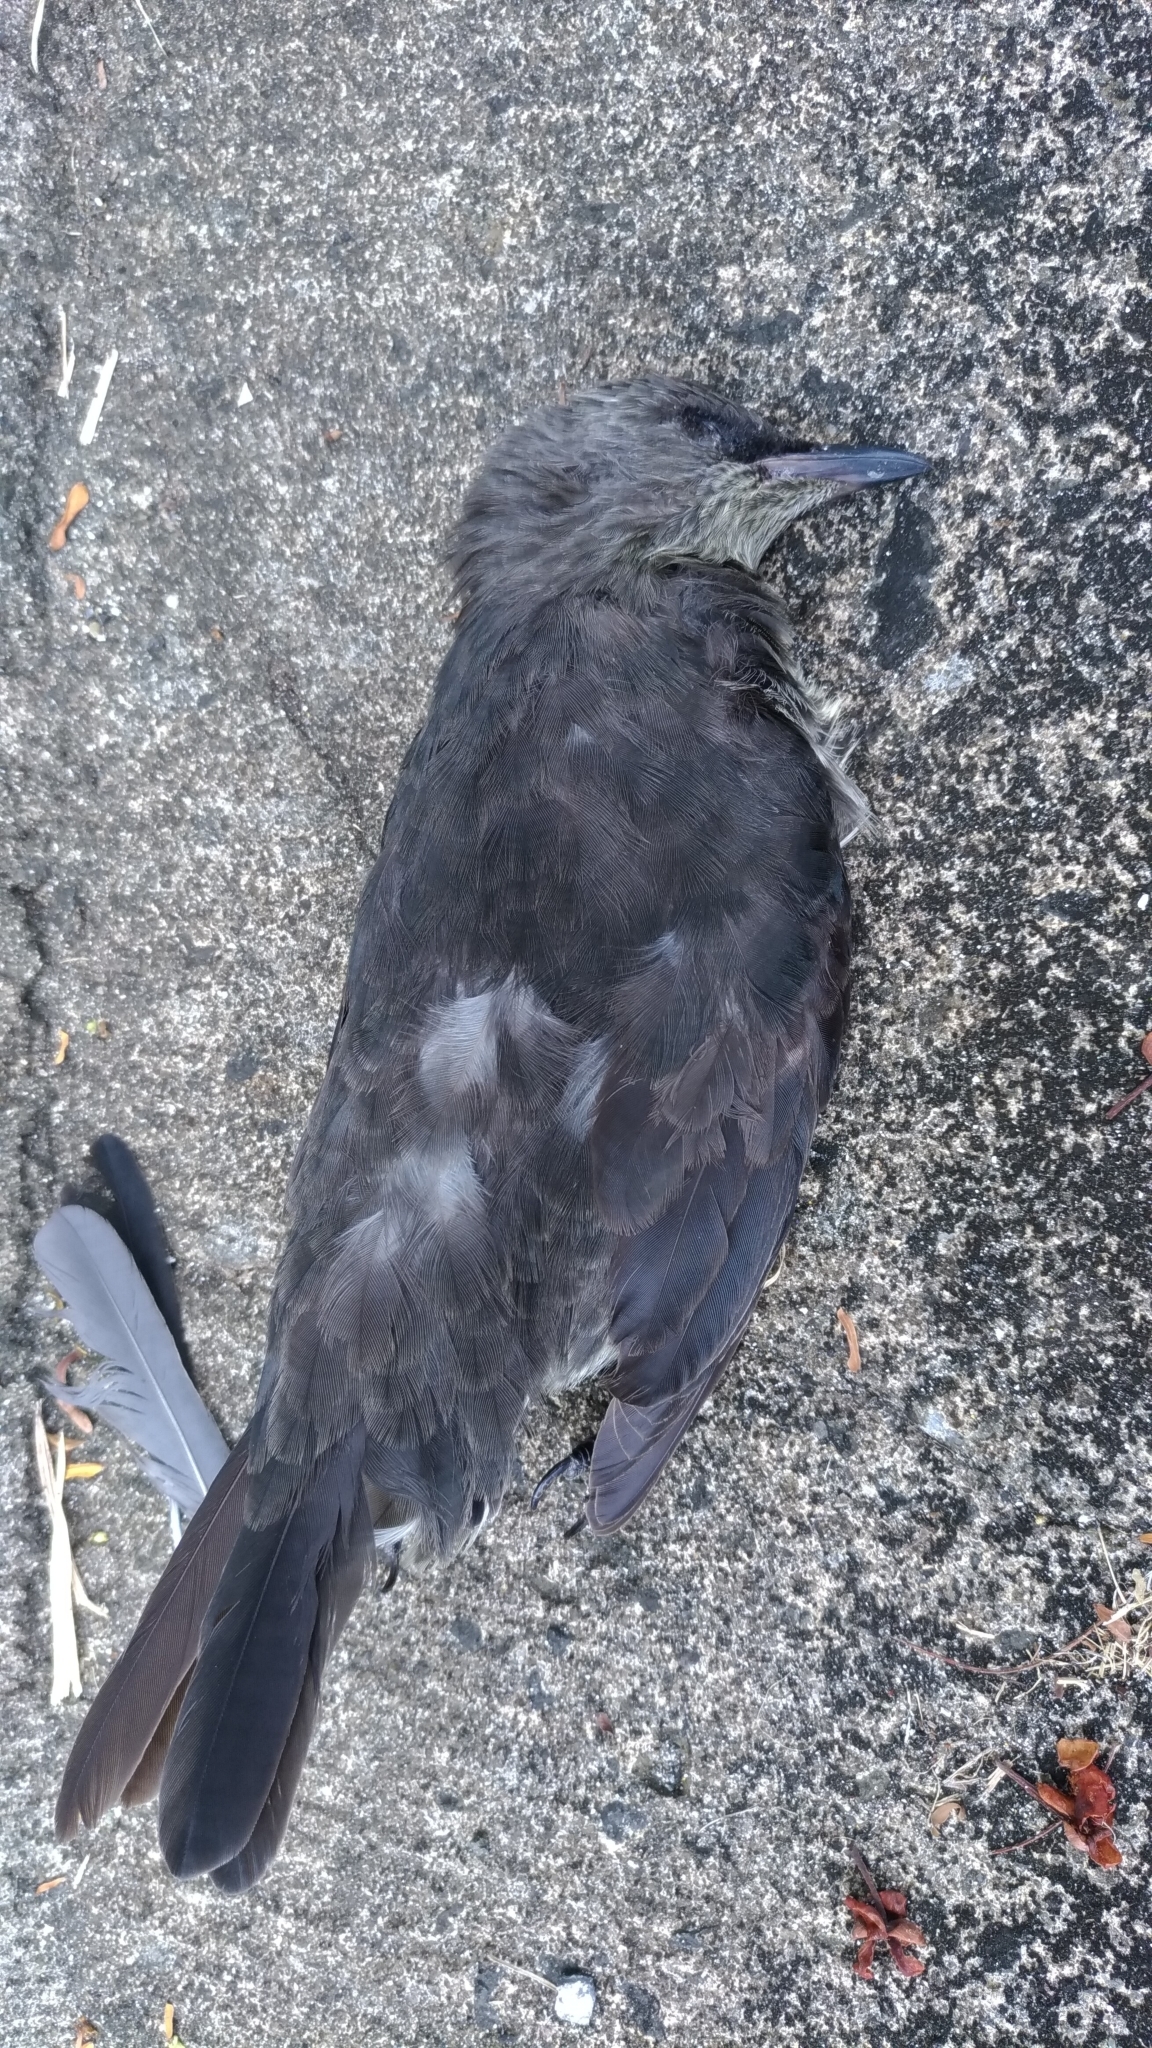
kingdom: Animalia
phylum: Chordata
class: Aves
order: Passeriformes
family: Sturnidae
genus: Aplonis
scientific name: Aplonis opaca
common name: Micronesian starling
